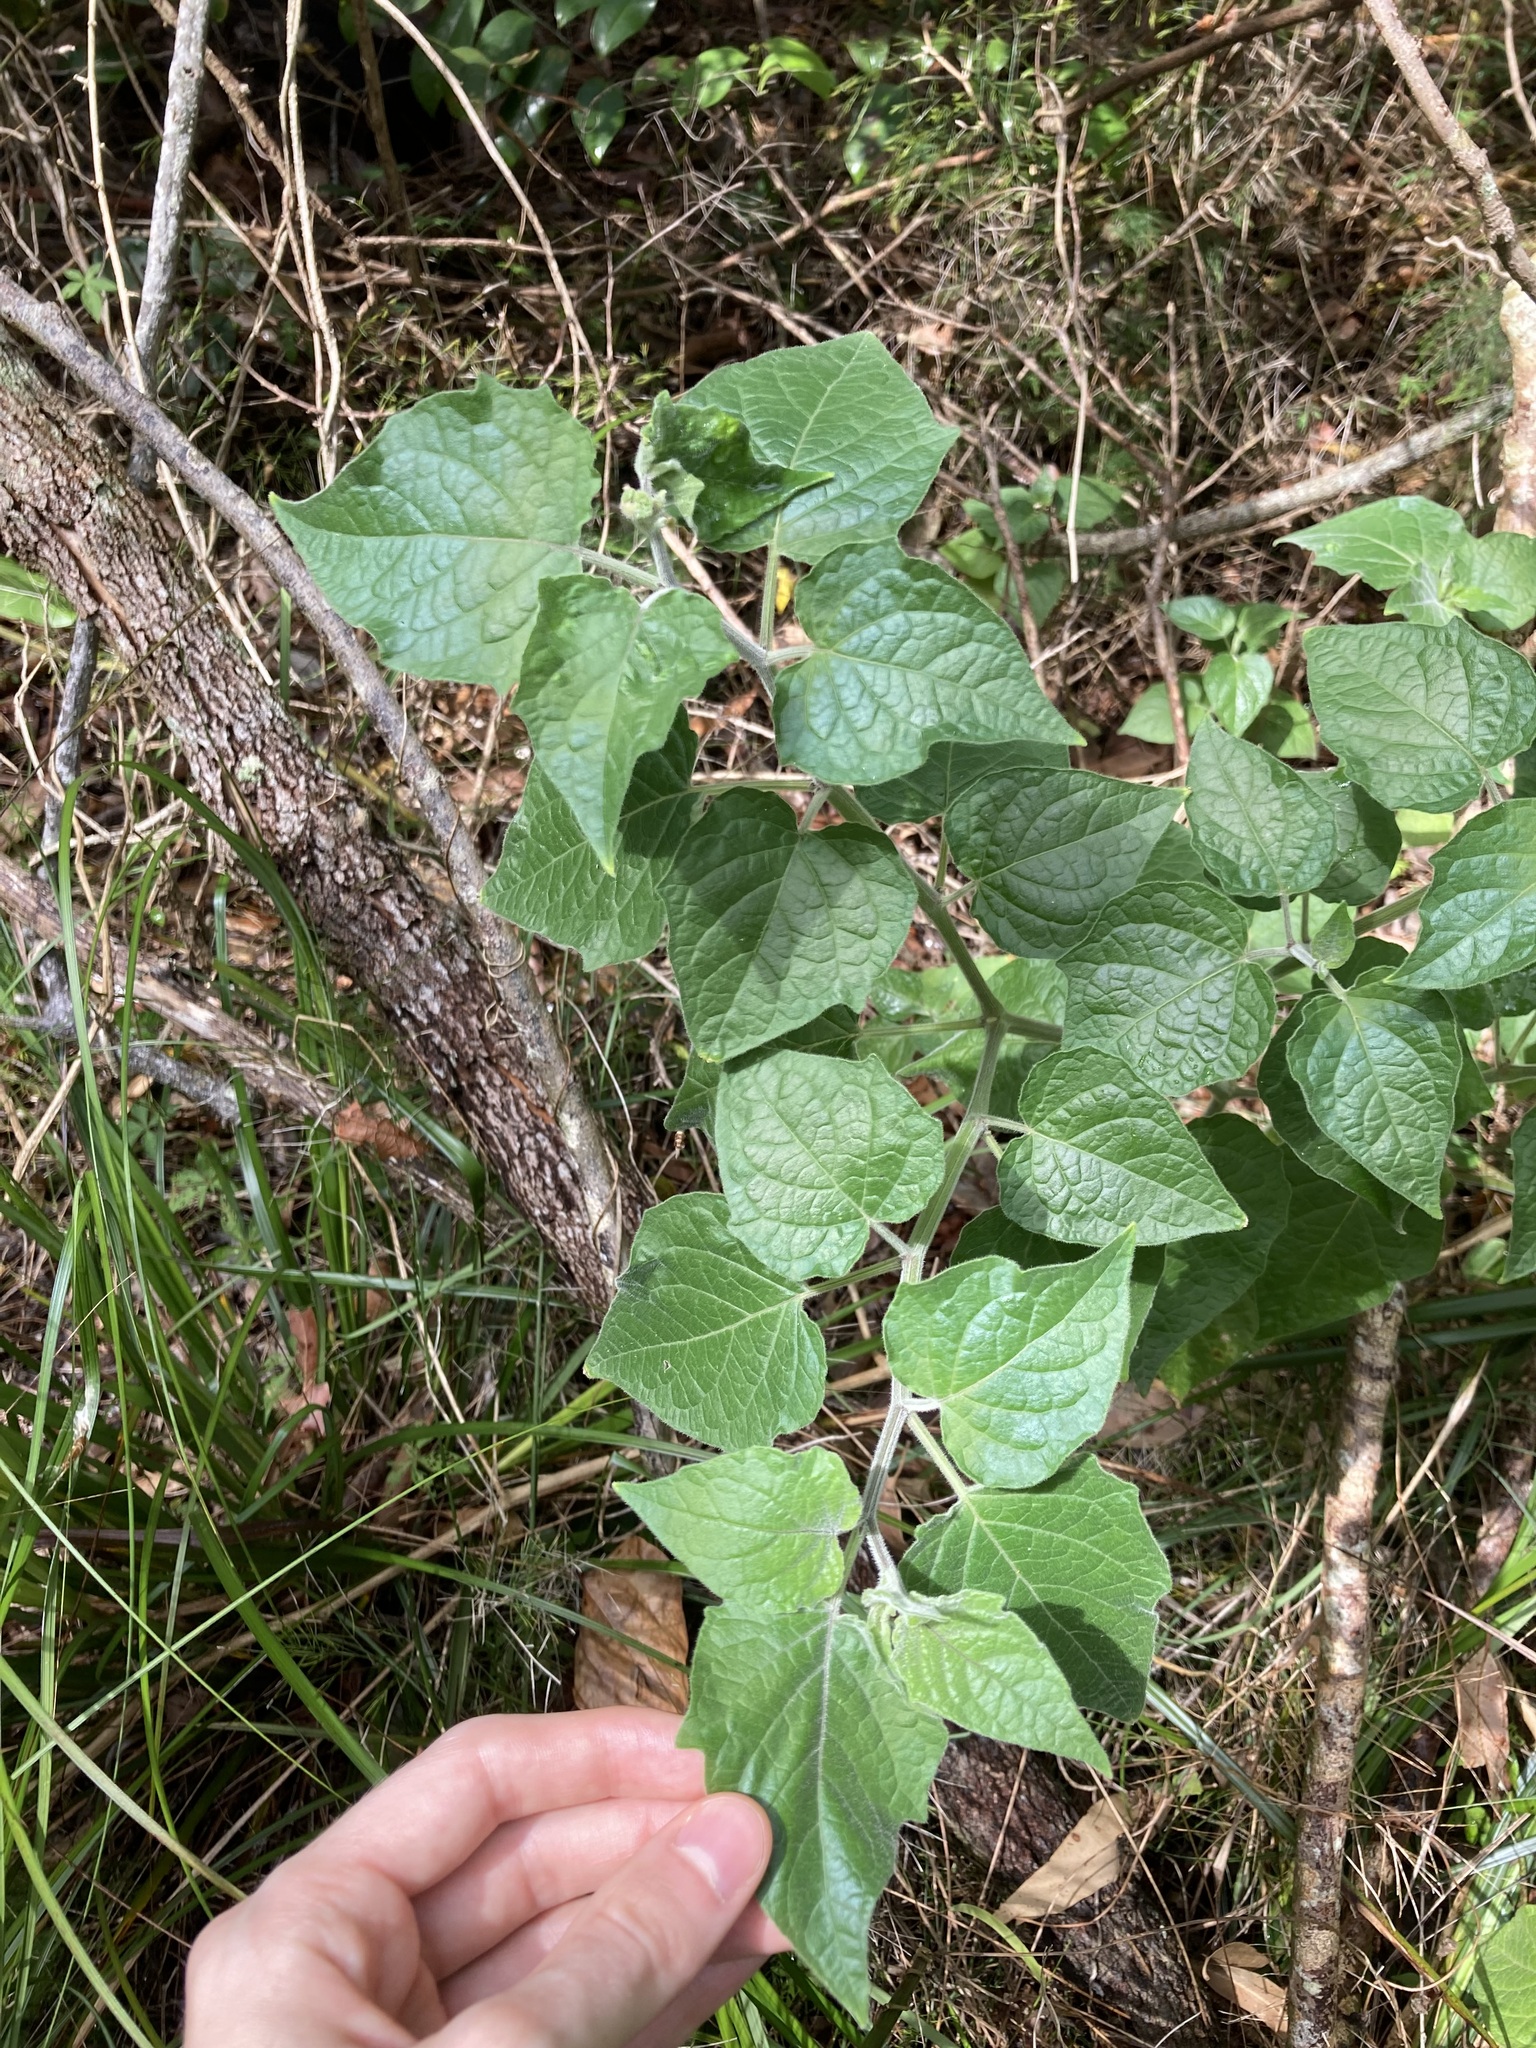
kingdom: Plantae
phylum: Tracheophyta
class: Magnoliopsida
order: Solanales
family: Solanaceae
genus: Physalis
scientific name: Physalis peruviana
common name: Cape-gooseberry
